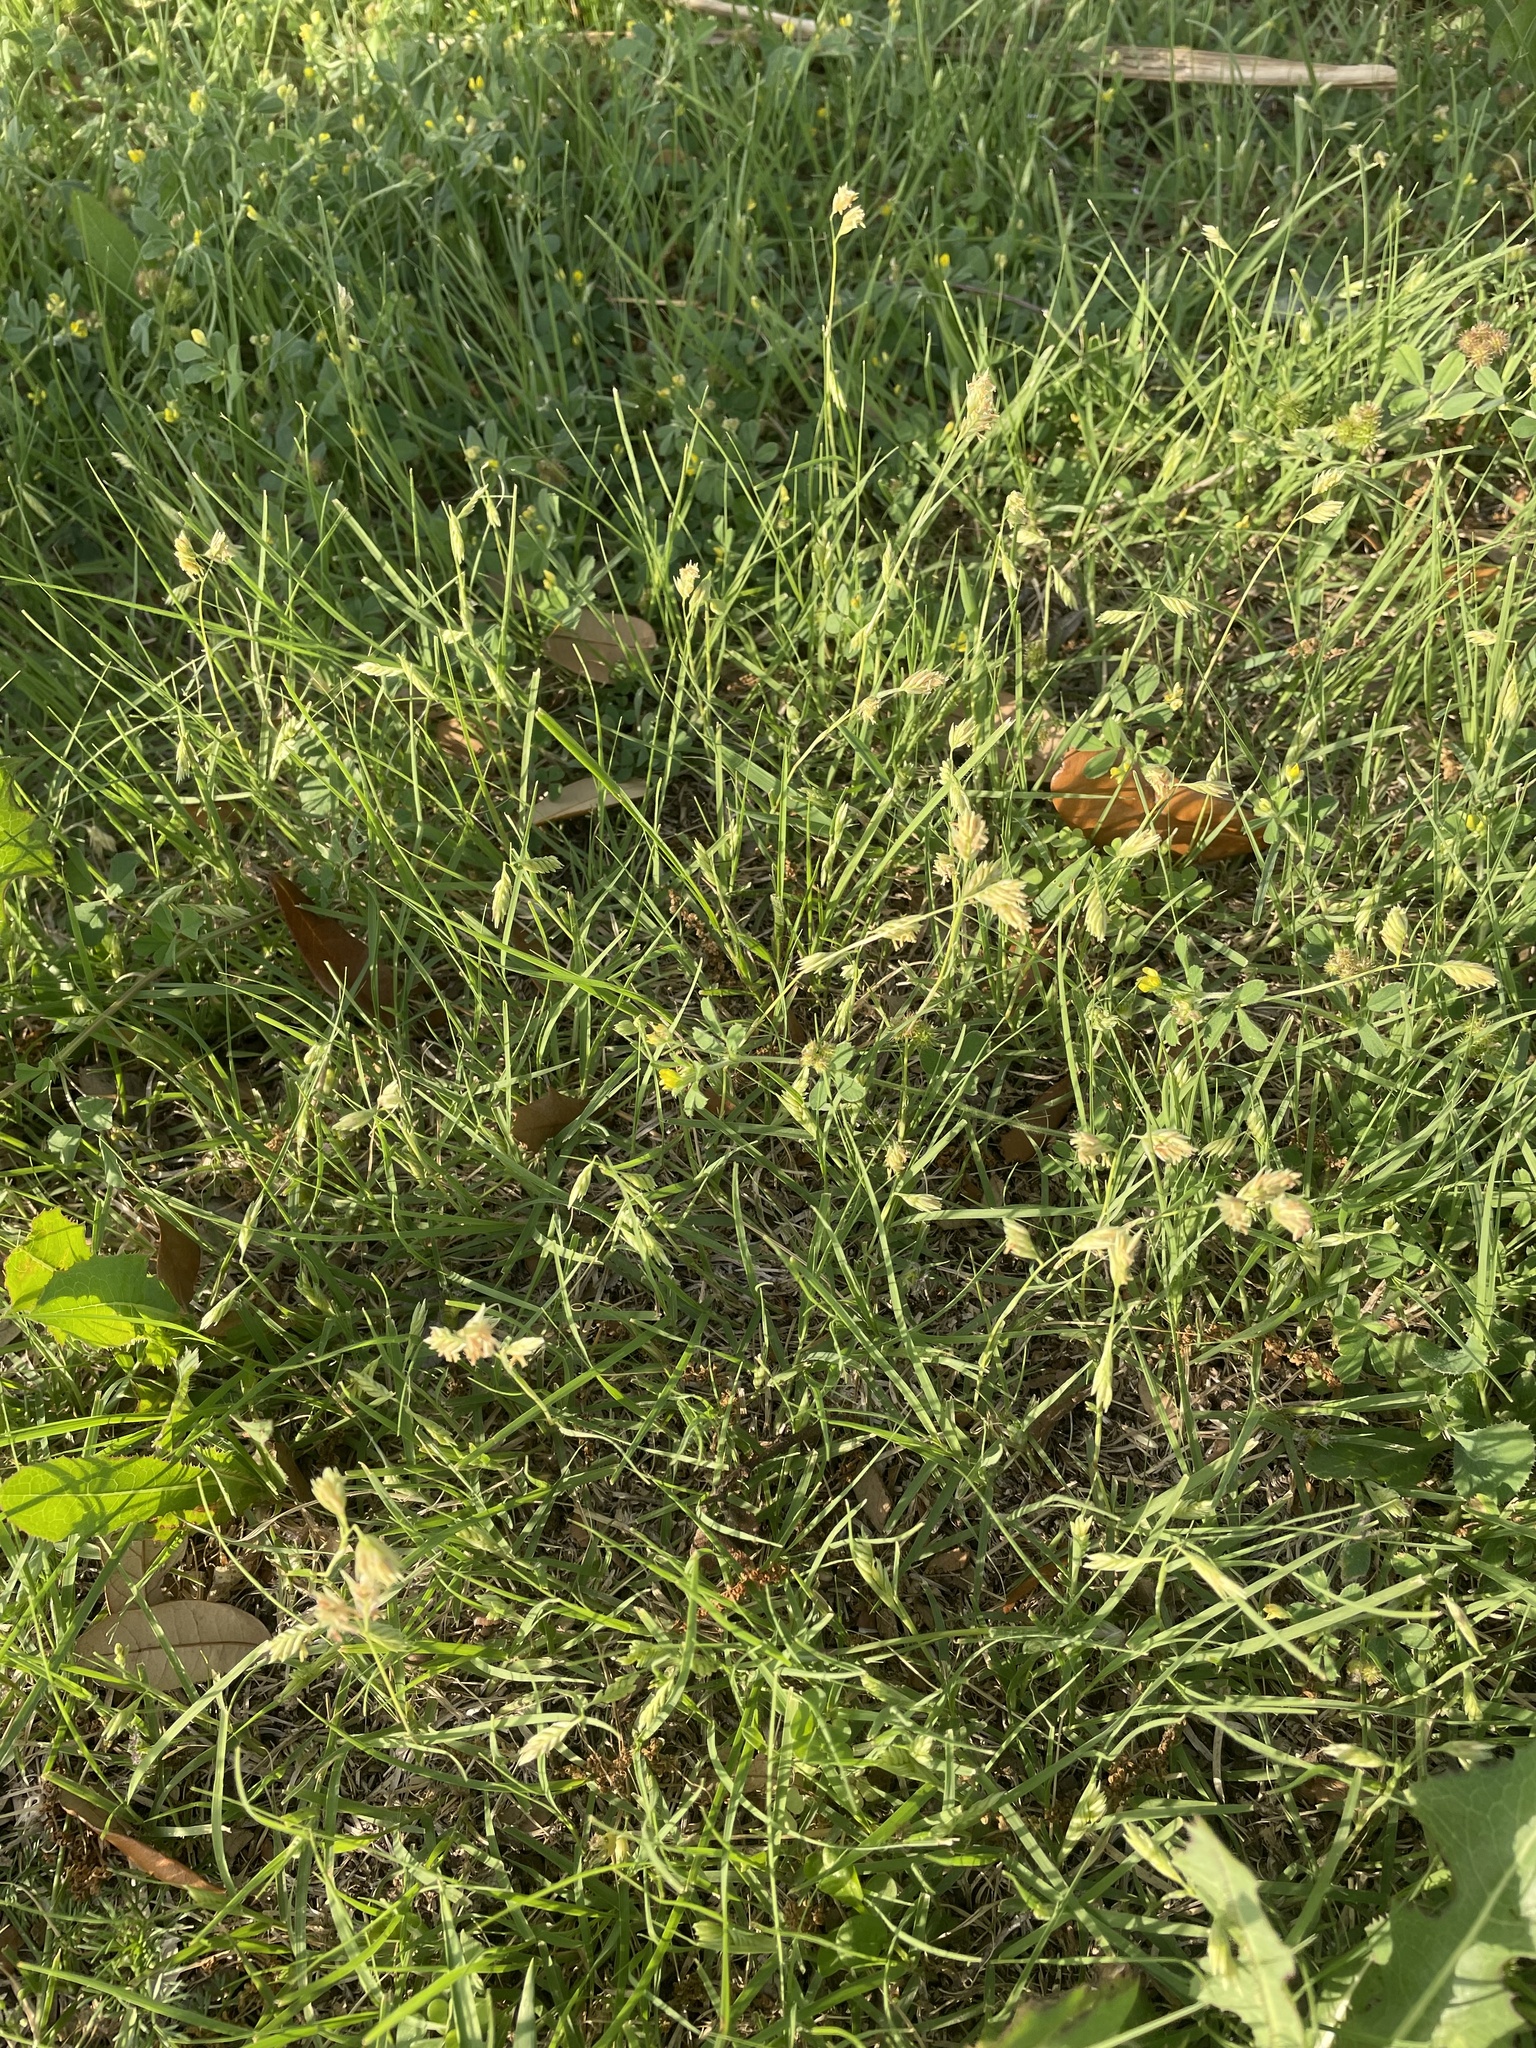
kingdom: Plantae
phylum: Tracheophyta
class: Liliopsida
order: Poales
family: Poaceae
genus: Bouteloua
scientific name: Bouteloua dactyloides
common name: Buffalo grass
